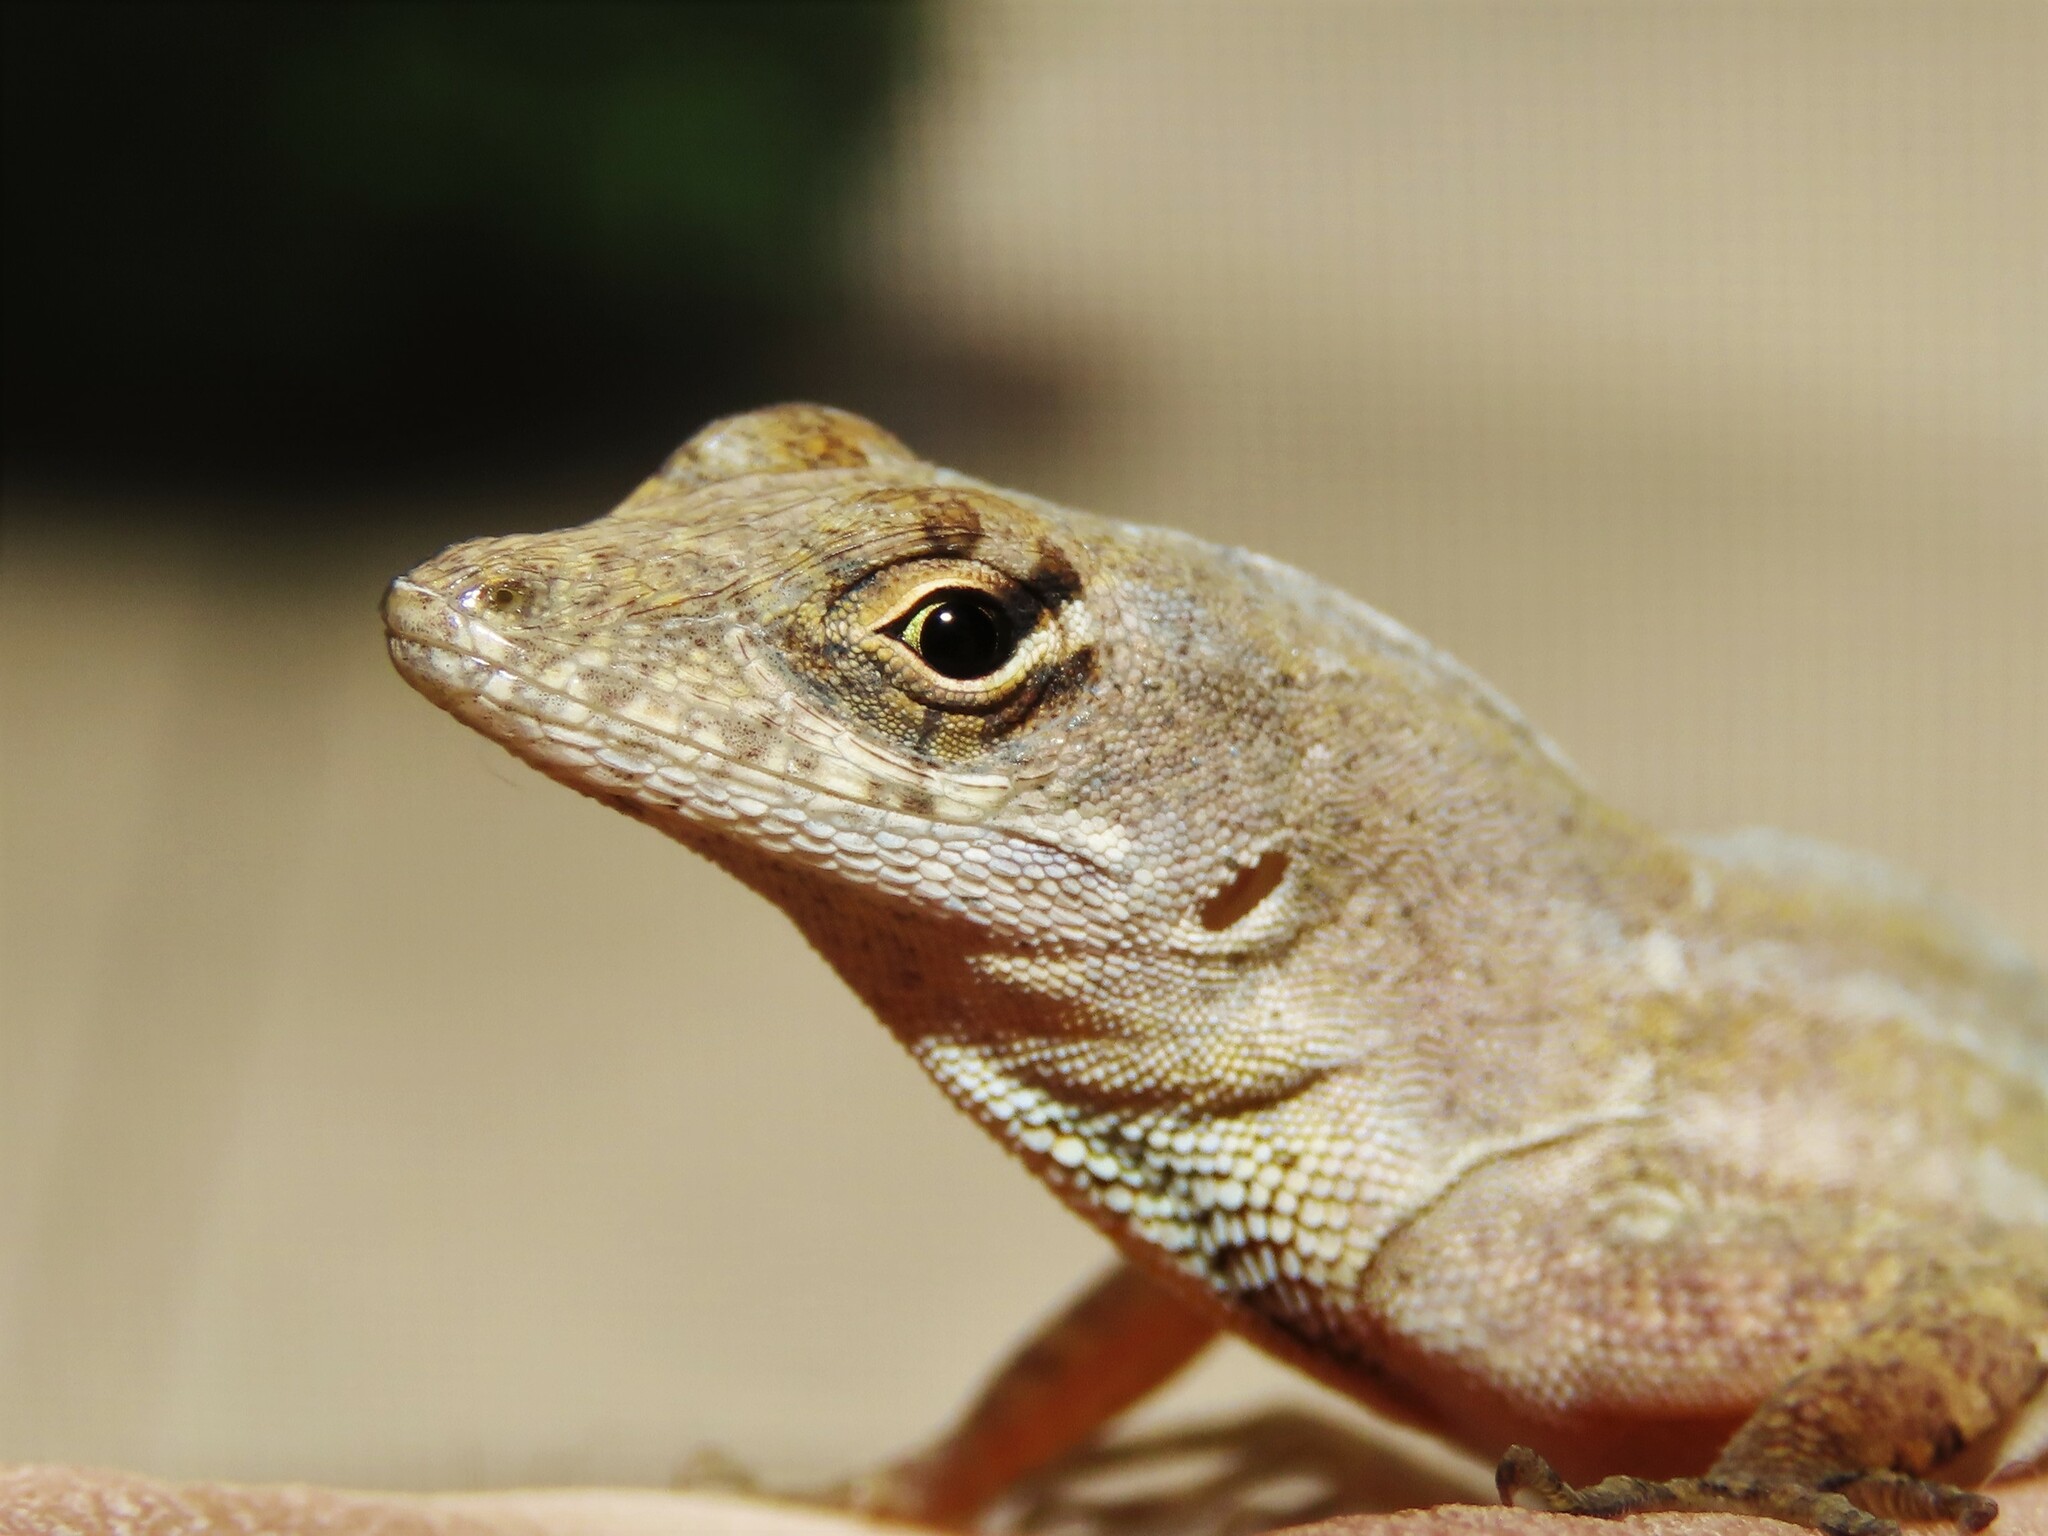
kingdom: Animalia
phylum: Chordata
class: Squamata
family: Dactyloidae
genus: Anolis
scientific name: Anolis sagrei
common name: Brown anole
